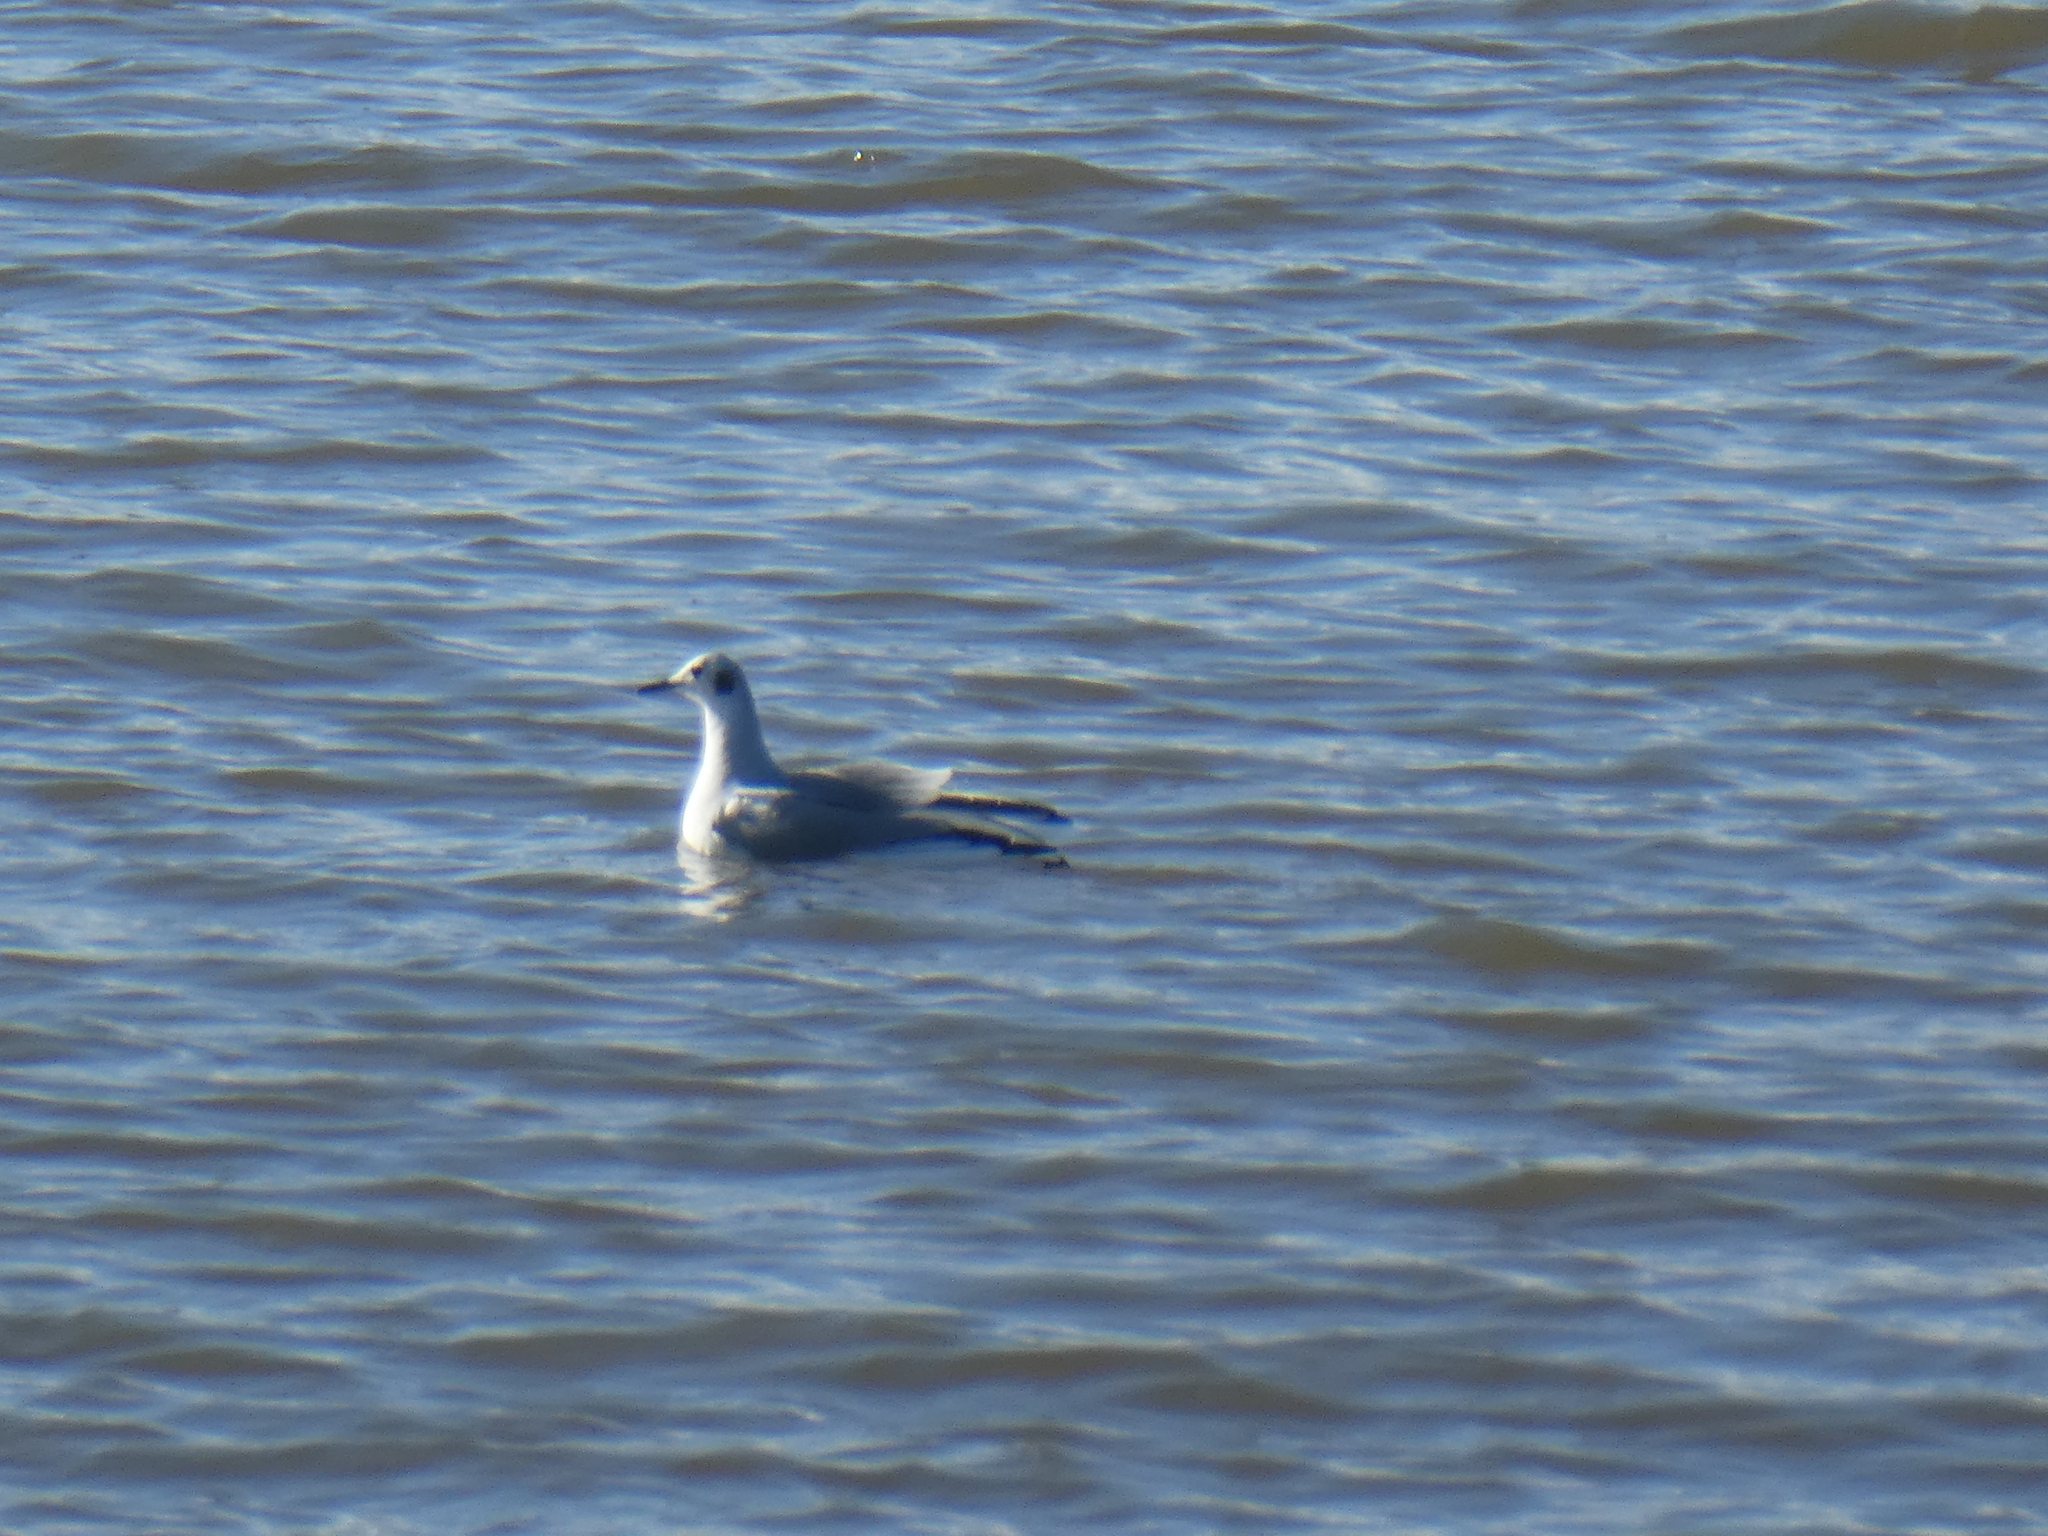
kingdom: Animalia
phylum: Chordata
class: Aves
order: Charadriiformes
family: Laridae
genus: Chroicocephalus
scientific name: Chroicocephalus philadelphia
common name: Bonaparte's gull
